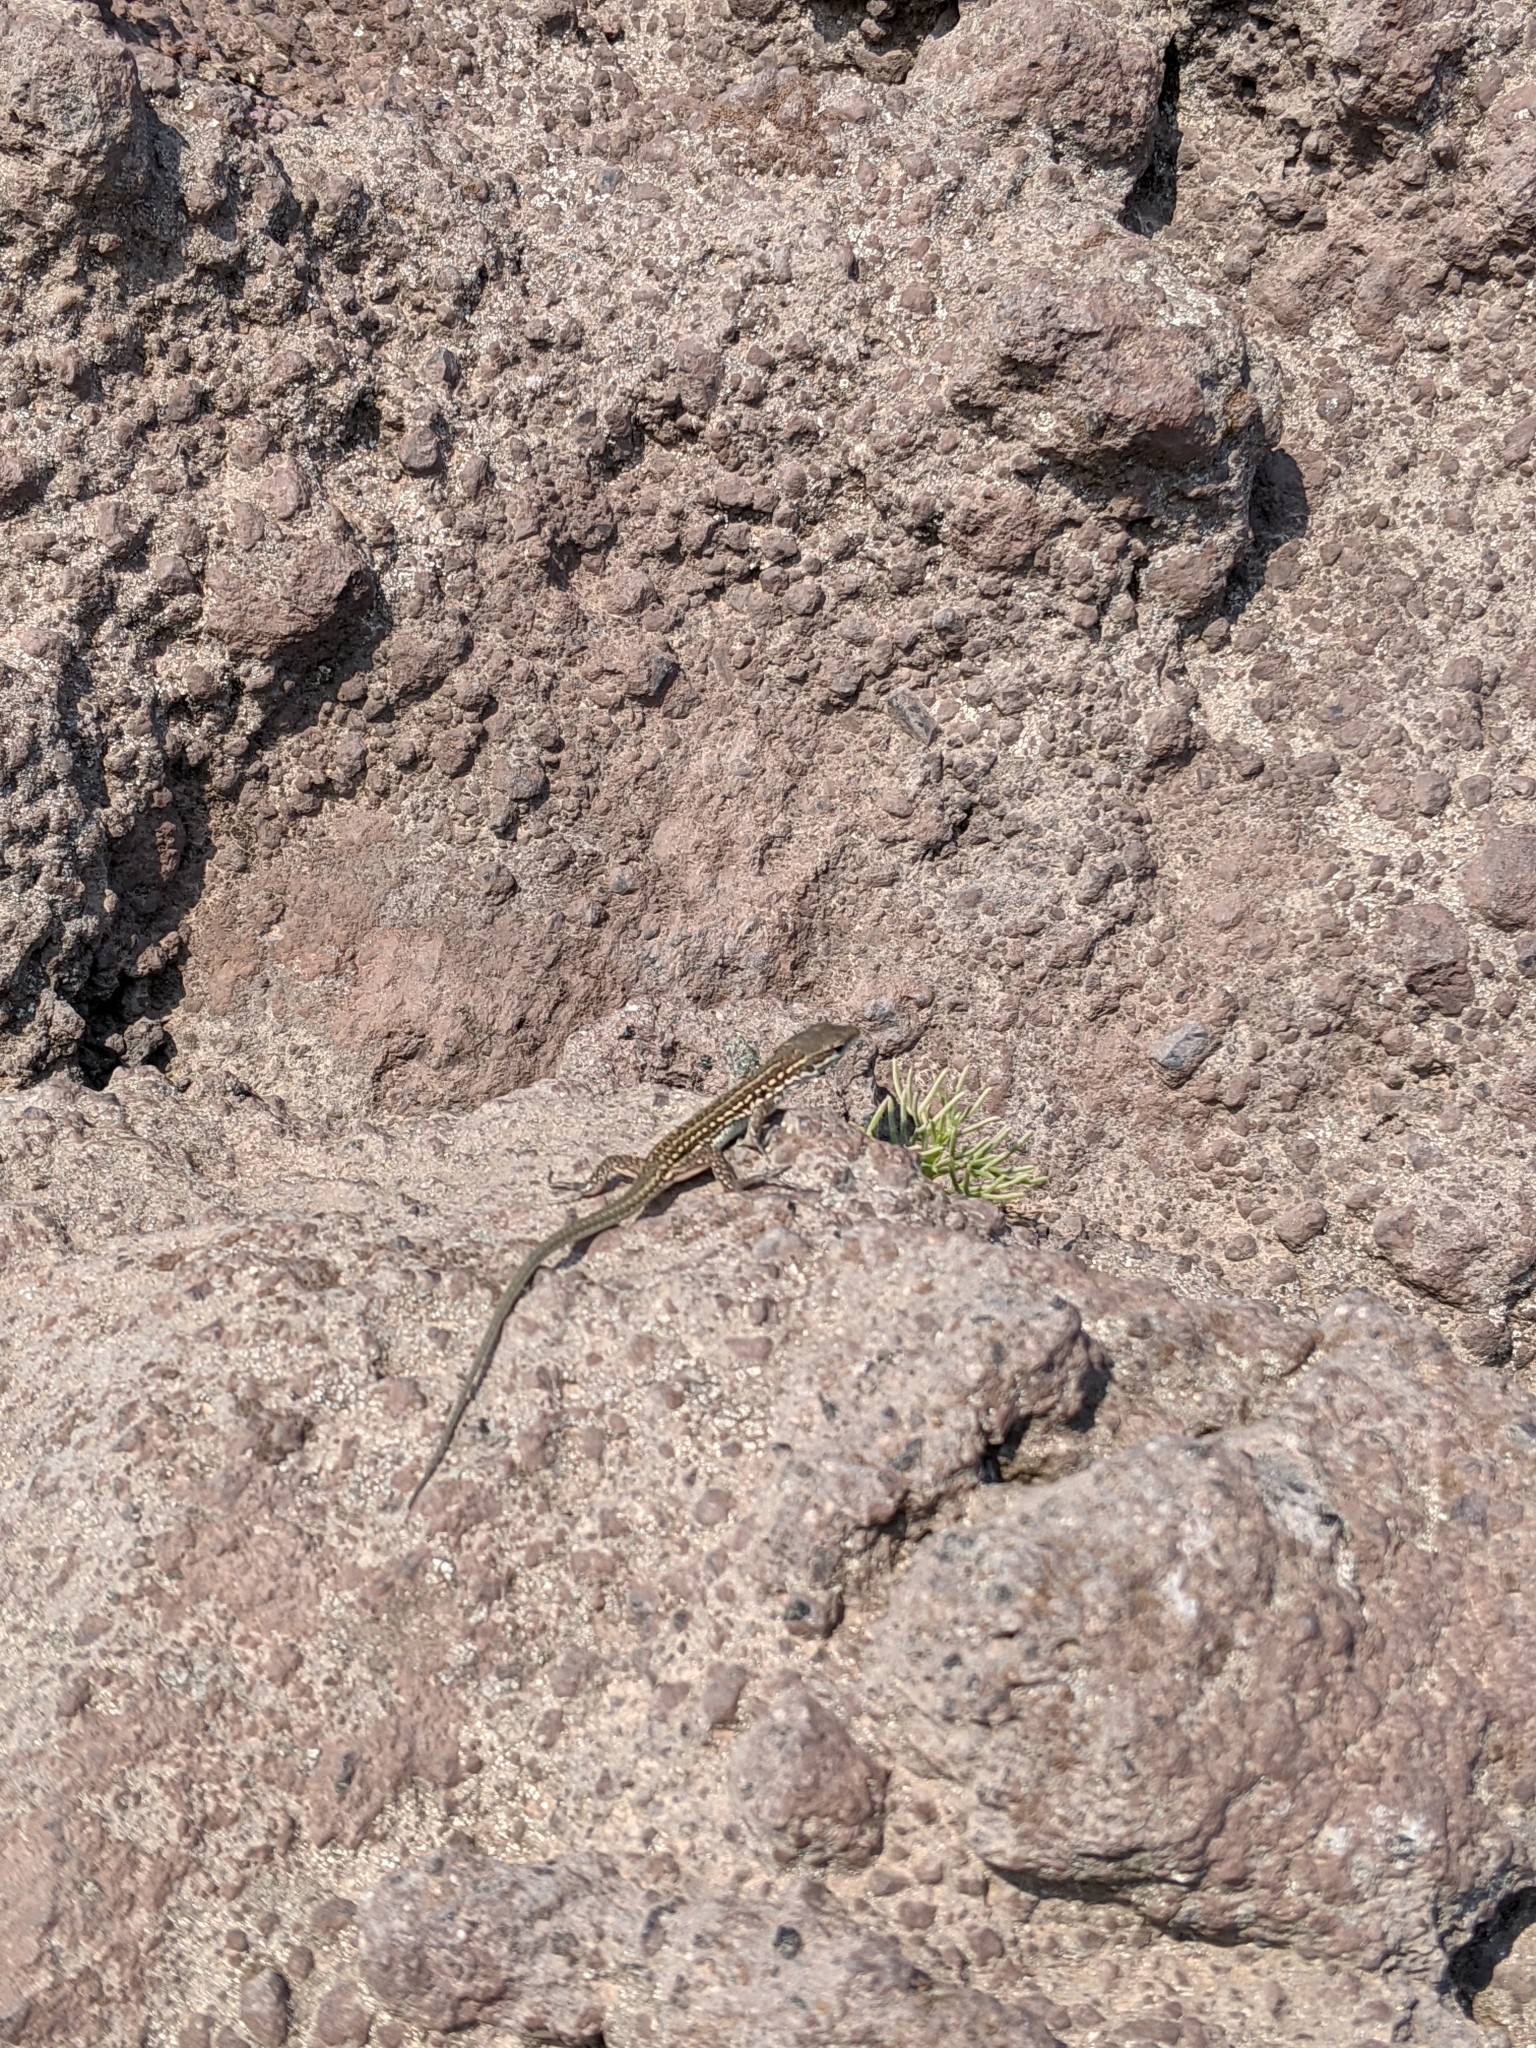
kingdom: Animalia
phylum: Chordata
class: Squamata
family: Lacertidae
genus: Podarcis
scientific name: Podarcis siculus
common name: Italian wall lizard
